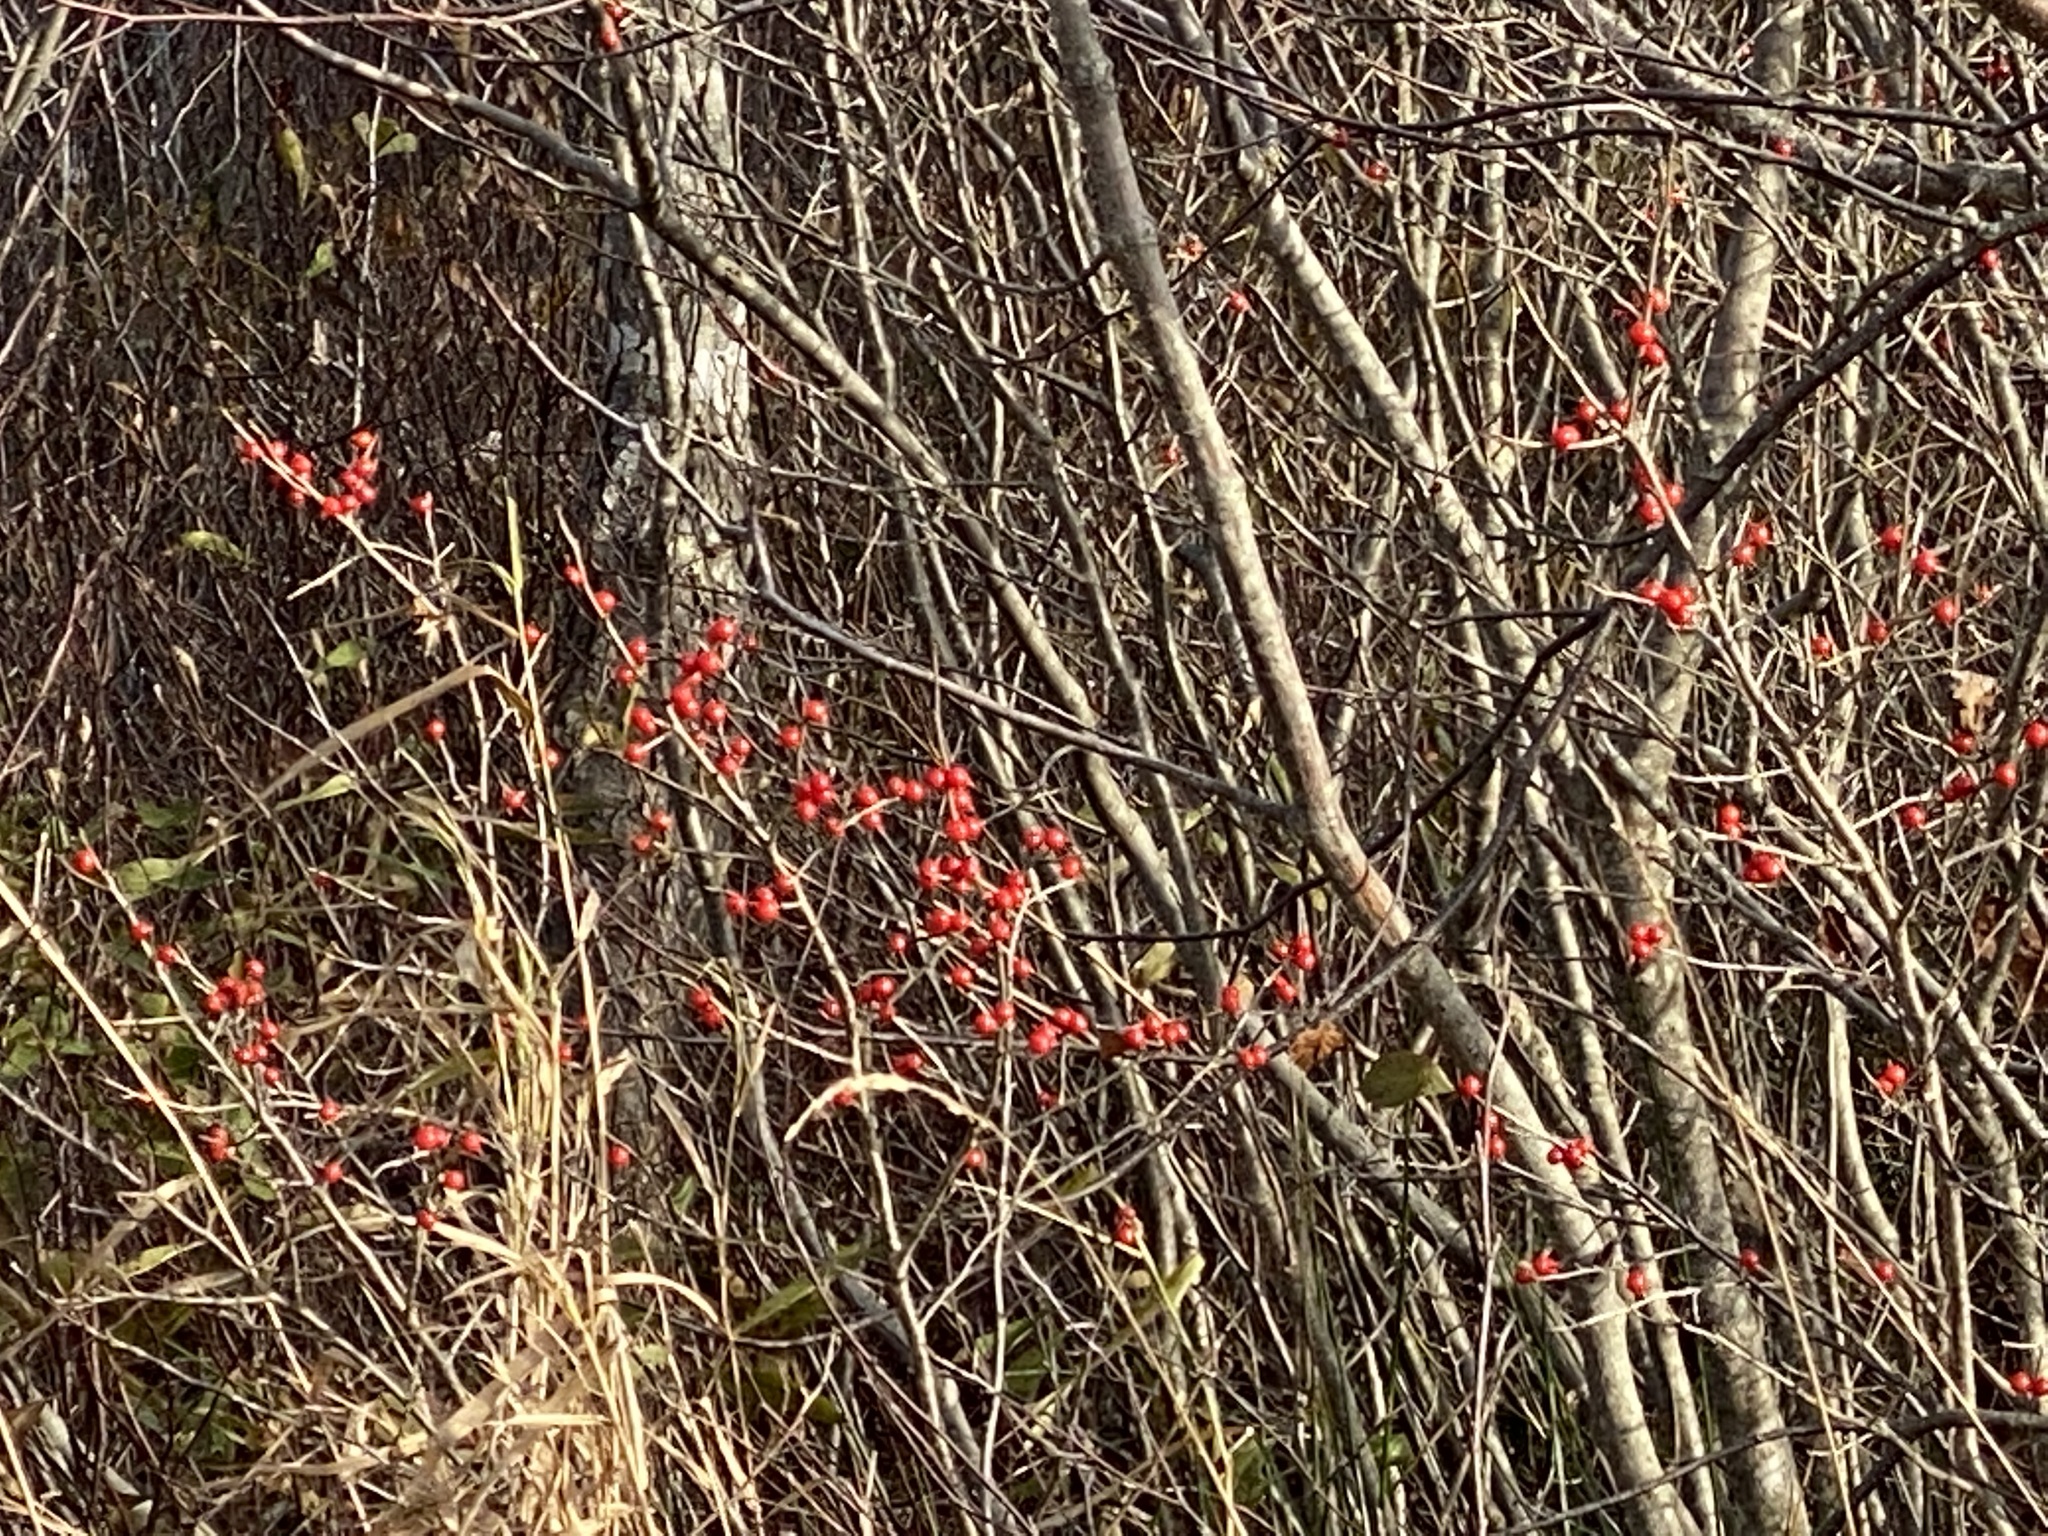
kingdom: Plantae
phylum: Tracheophyta
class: Magnoliopsida
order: Aquifoliales
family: Aquifoliaceae
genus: Ilex
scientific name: Ilex verticillata
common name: Virginia winterberry
